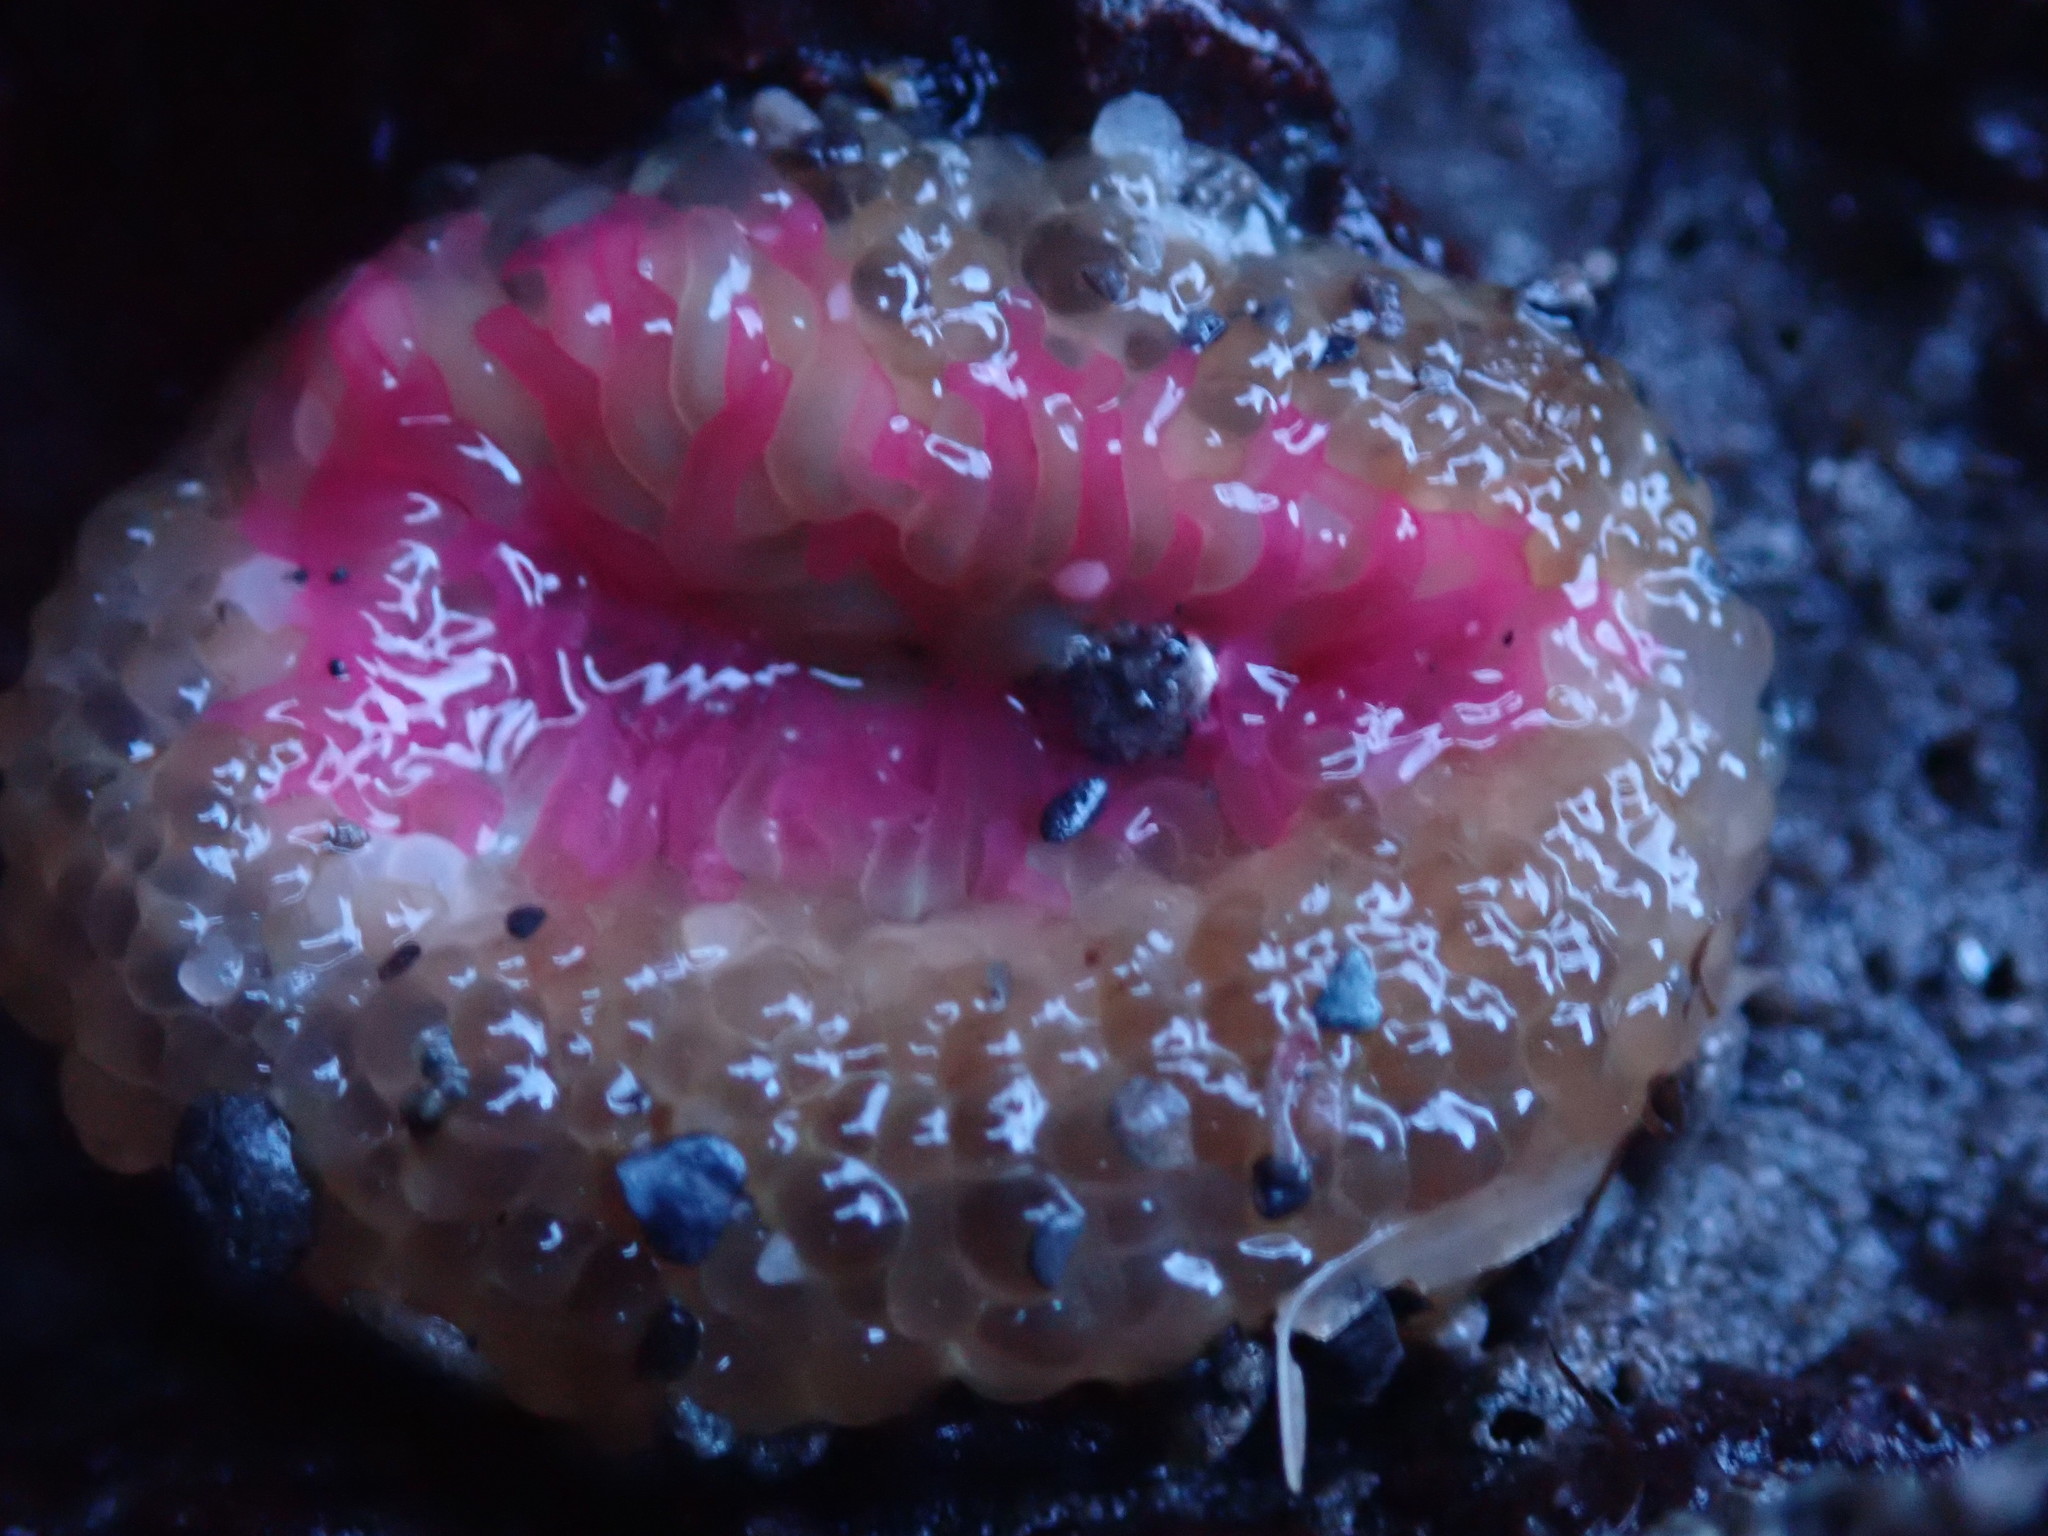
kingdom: Animalia
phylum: Cnidaria
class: Anthozoa
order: Actiniaria
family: Actiniidae
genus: Anthopleura
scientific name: Anthopleura elegantissima
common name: Clonal anemone
